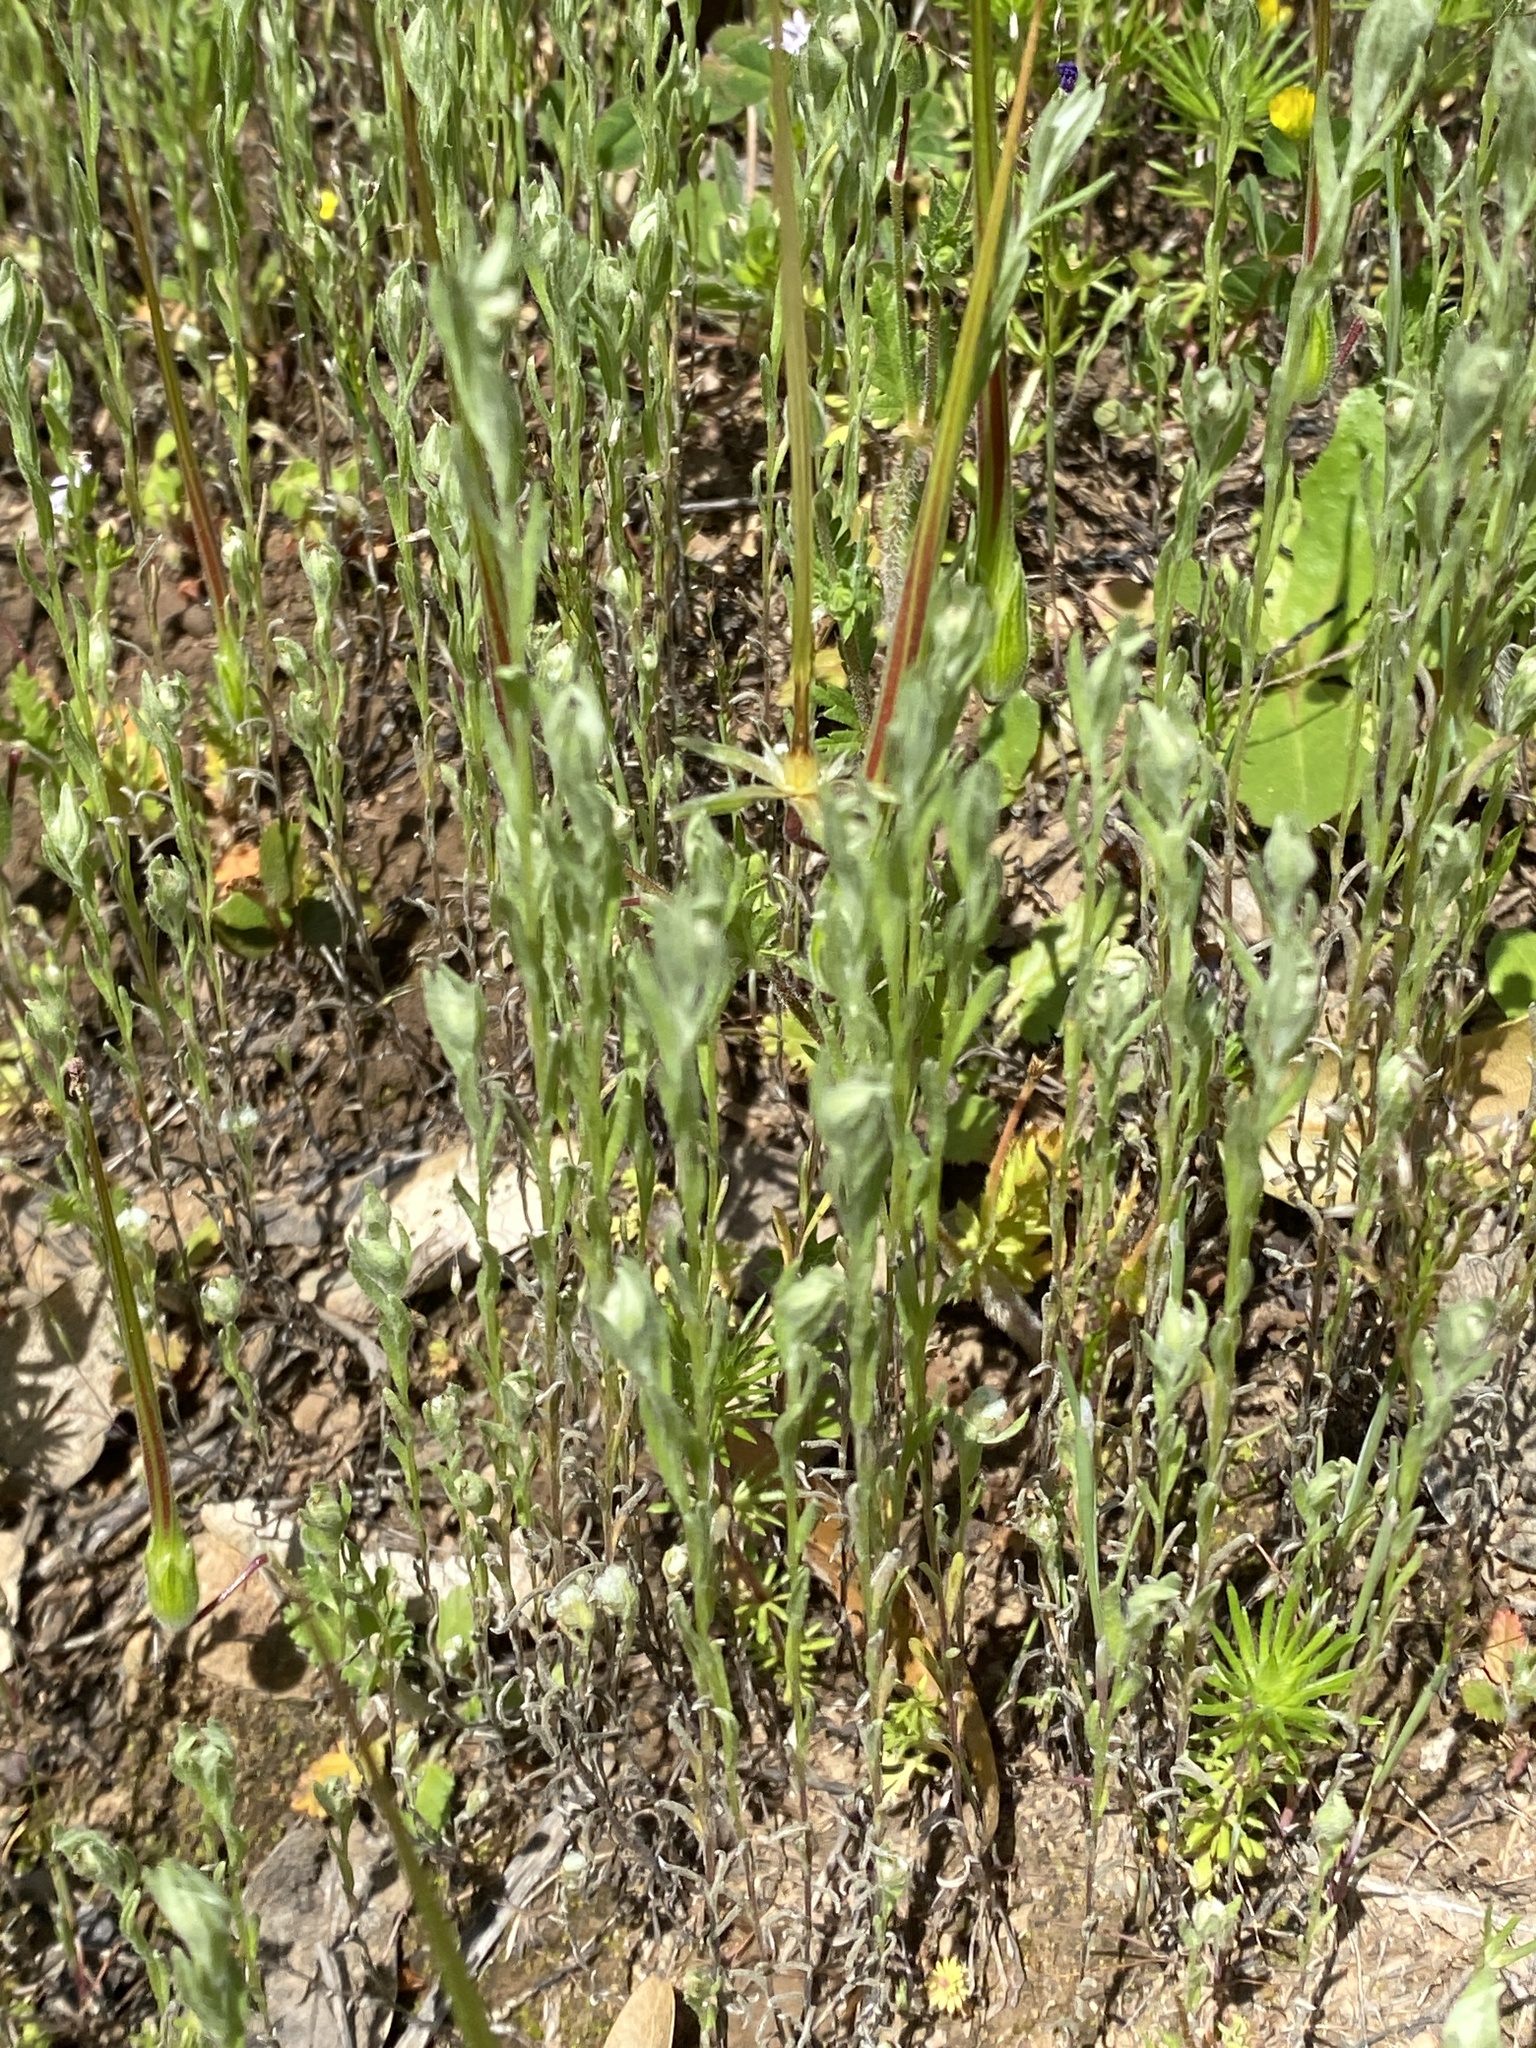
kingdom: Plantae
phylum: Tracheophyta
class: Magnoliopsida
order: Asterales
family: Asteraceae
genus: Bombycilaena
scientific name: Bombycilaena californica
